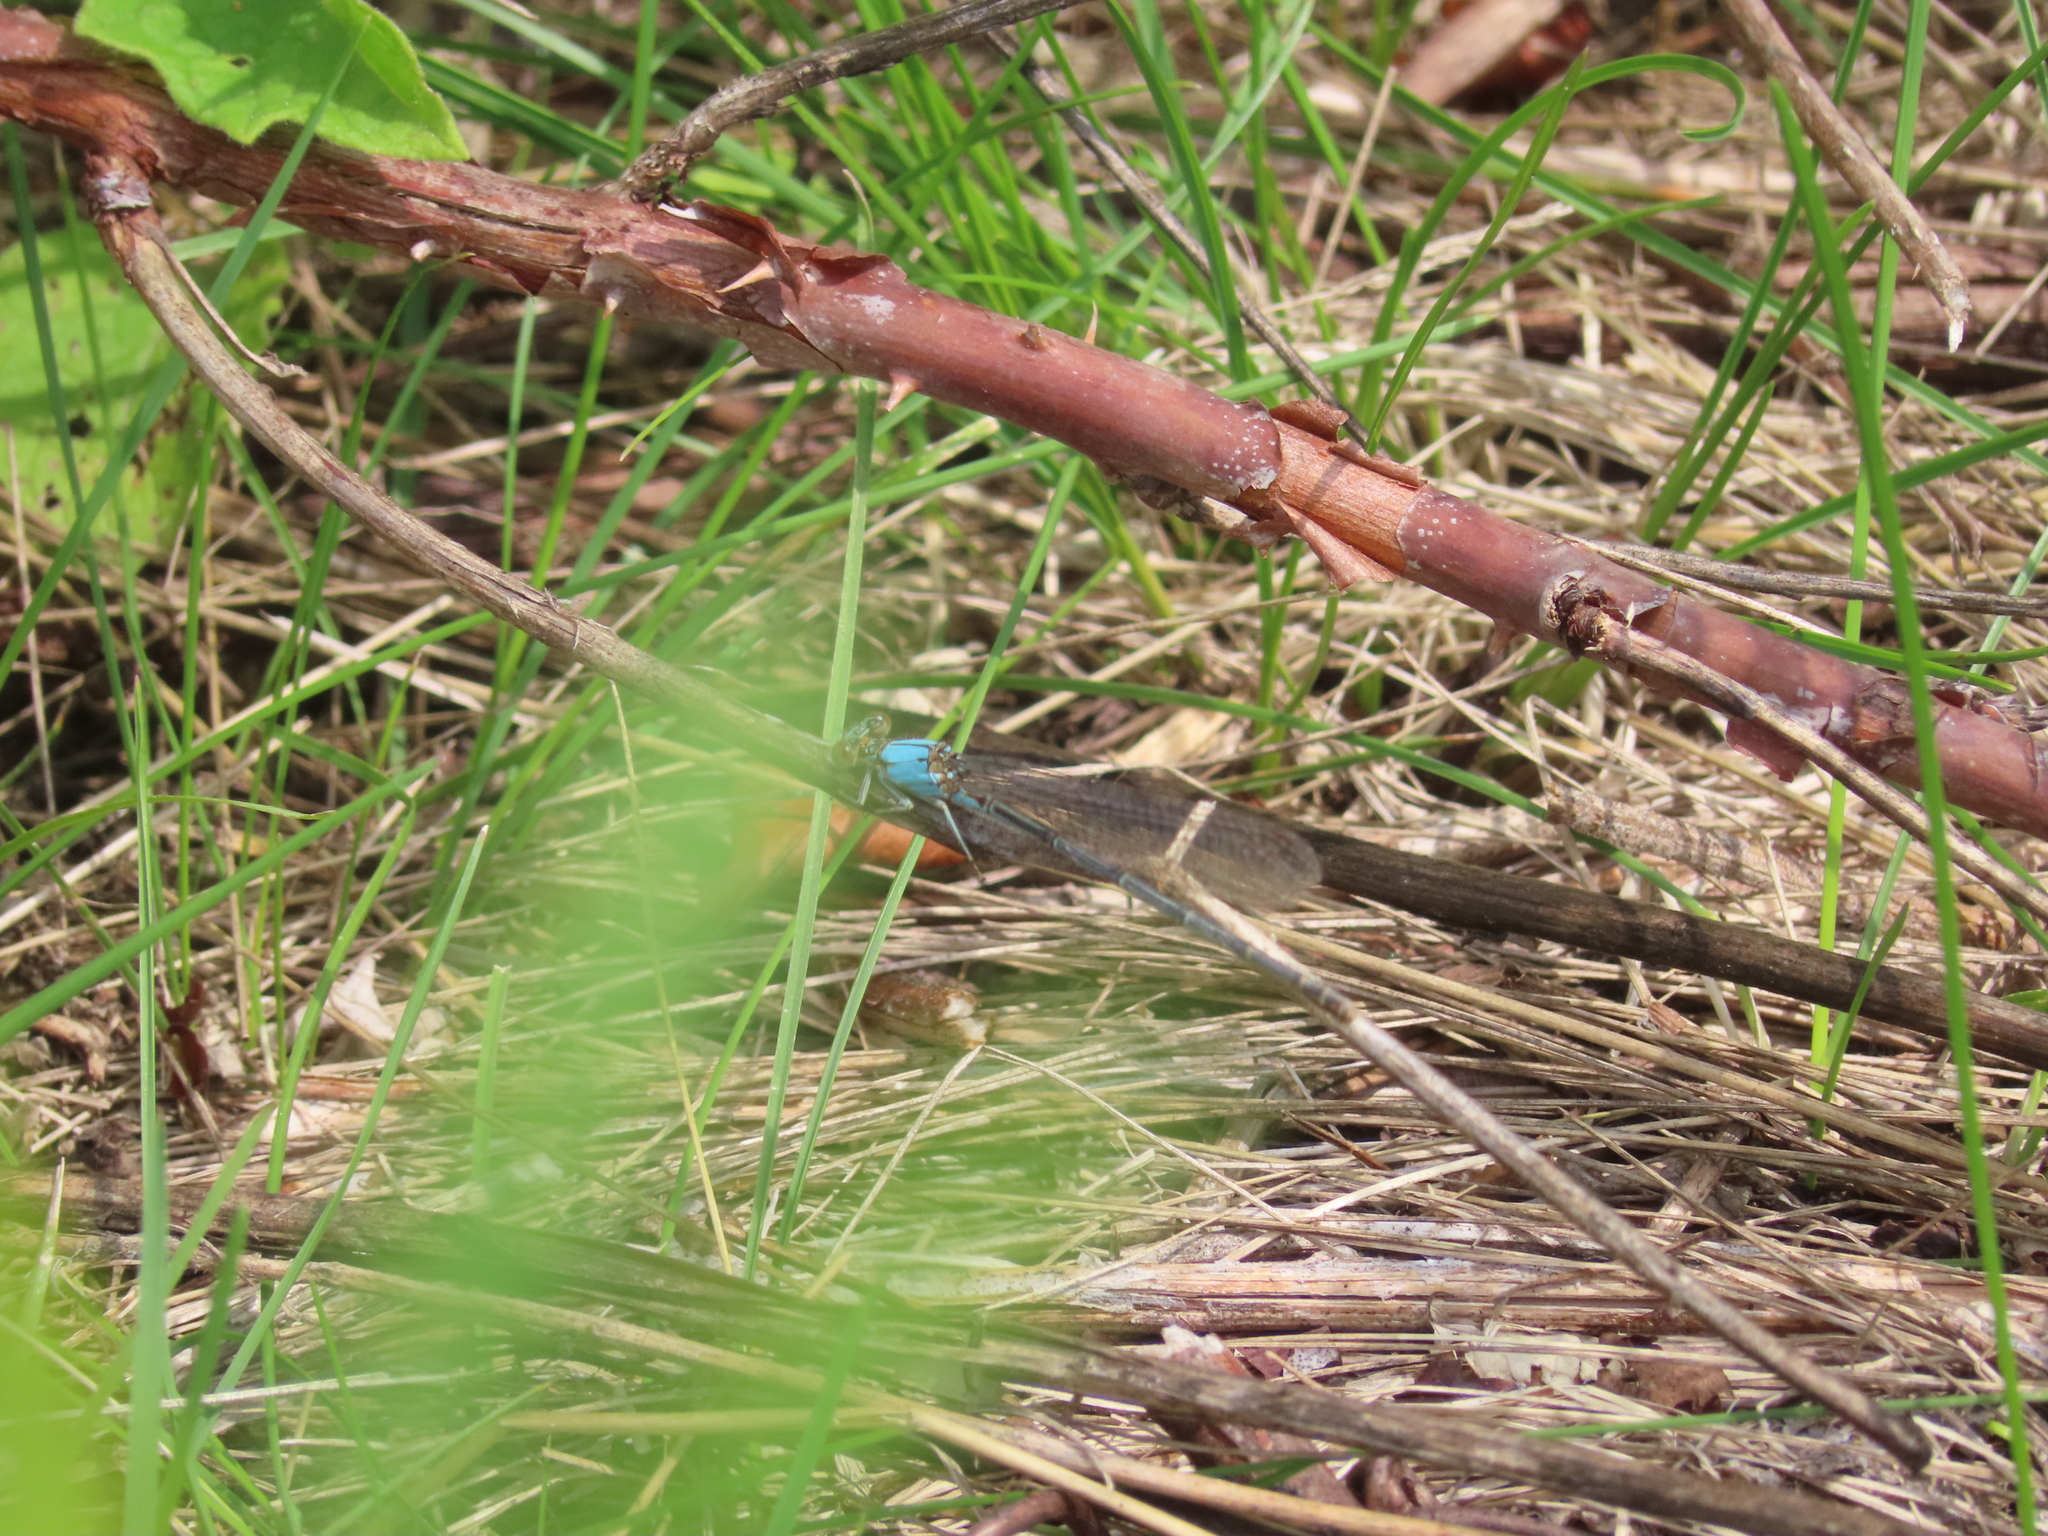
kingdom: Animalia
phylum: Arthropoda
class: Insecta
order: Odonata
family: Coenagrionidae
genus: Argia
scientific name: Argia
